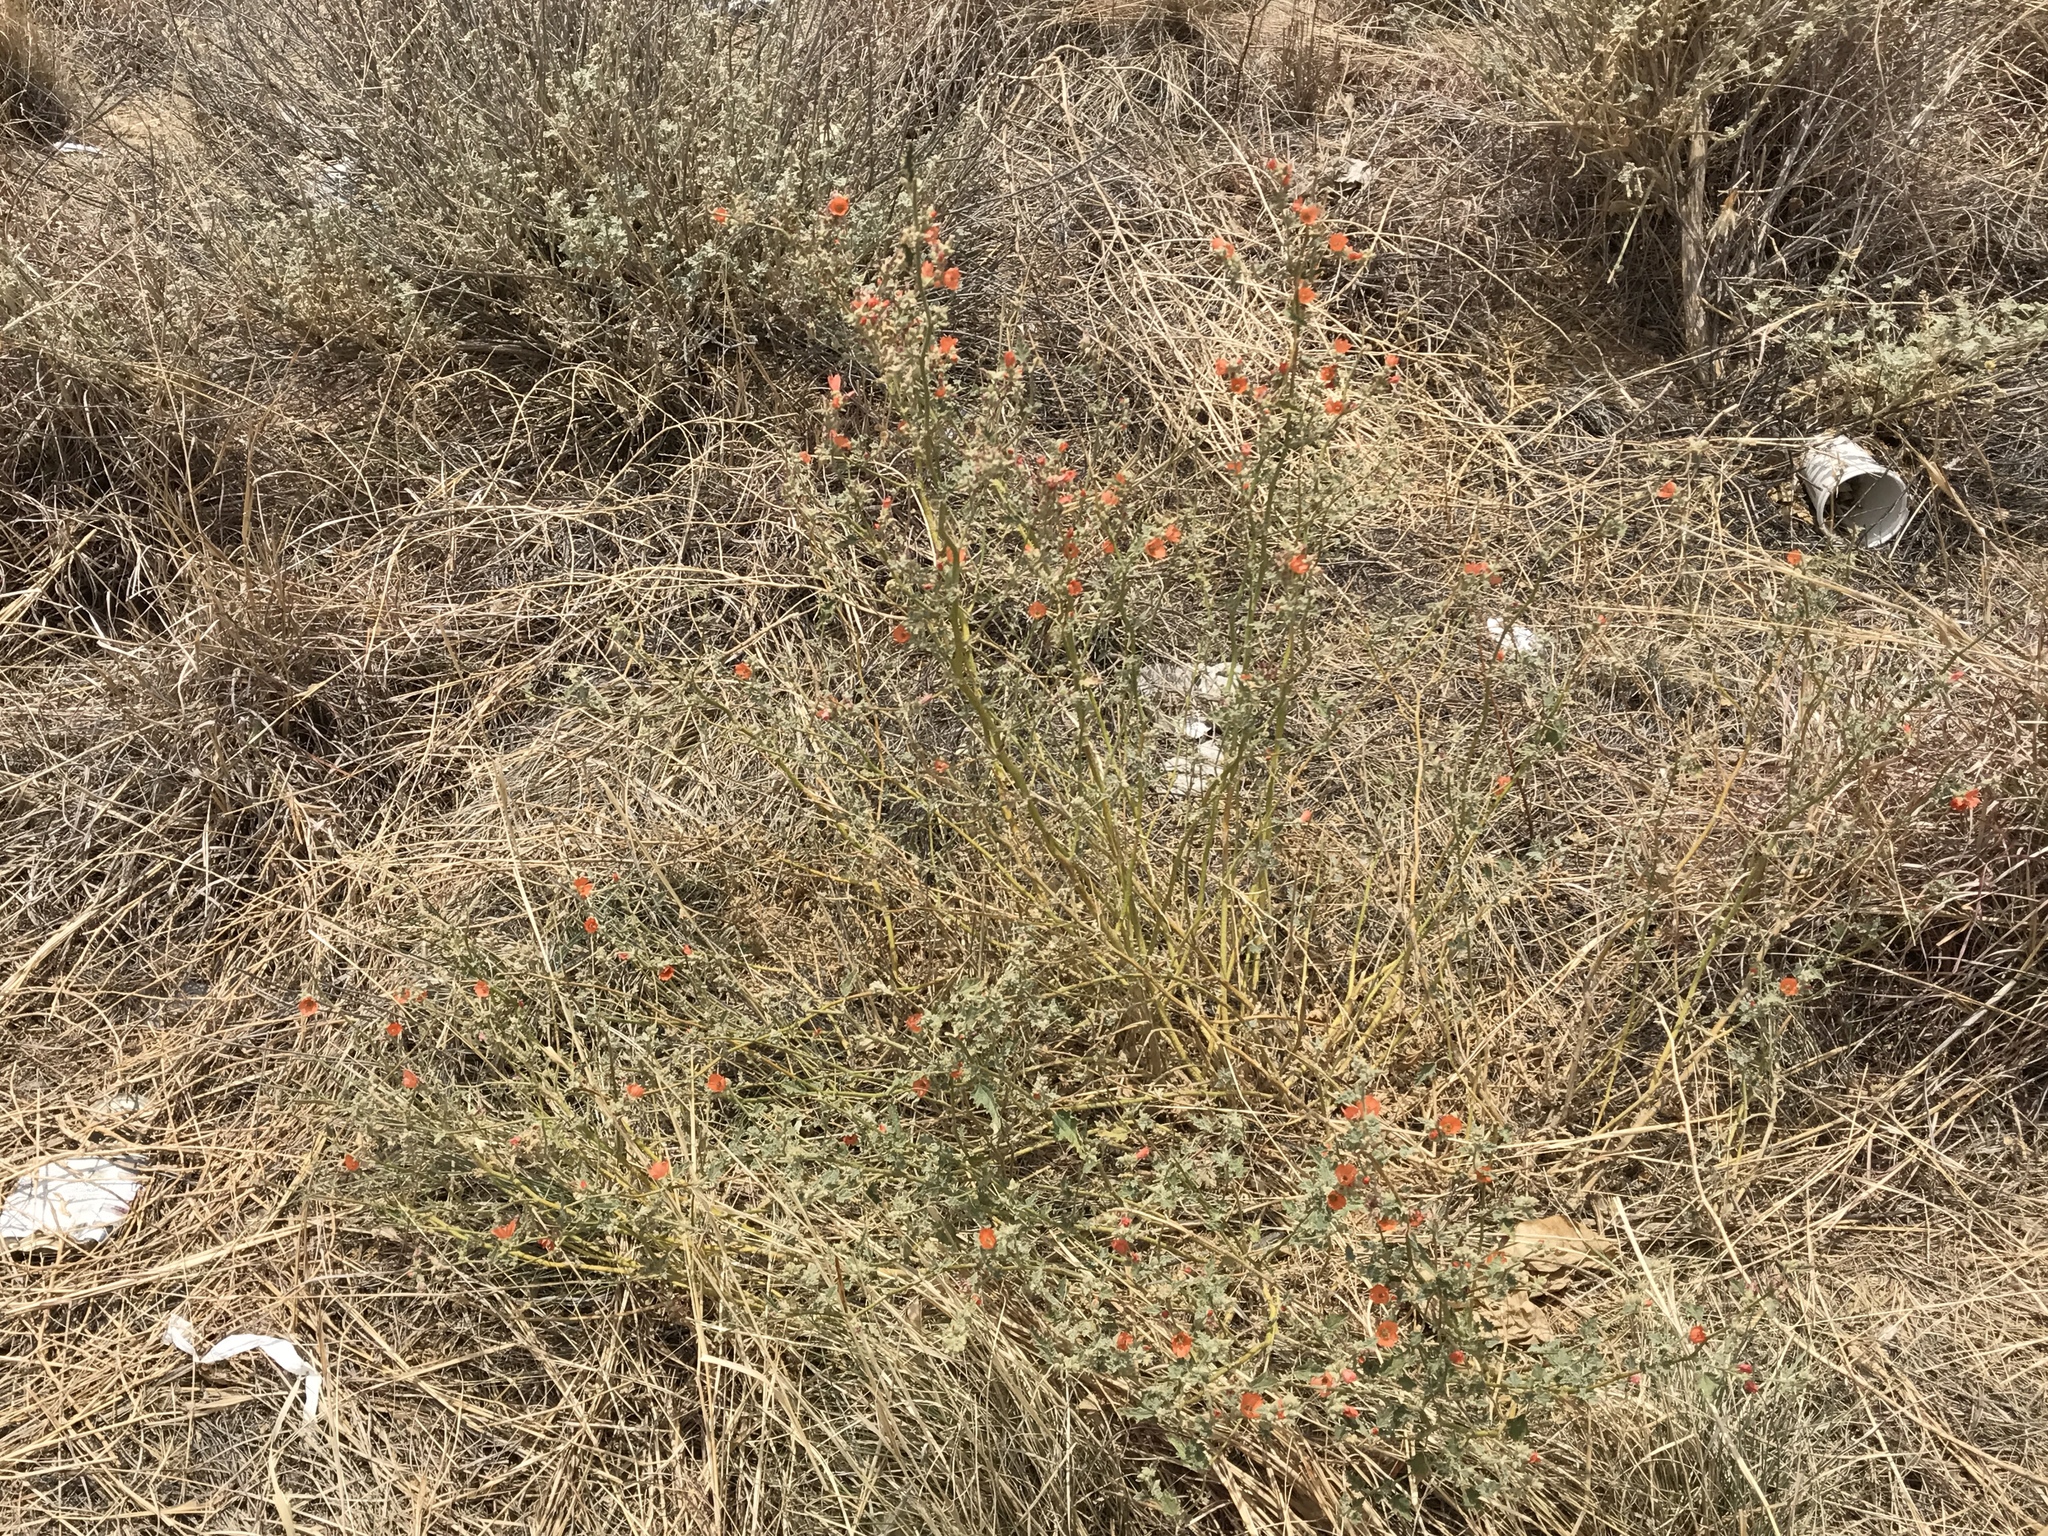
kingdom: Plantae
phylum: Tracheophyta
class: Magnoliopsida
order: Malvales
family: Malvaceae
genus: Sphaeralcea
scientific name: Sphaeralcea ambigua
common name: Apricot globe-mallow
